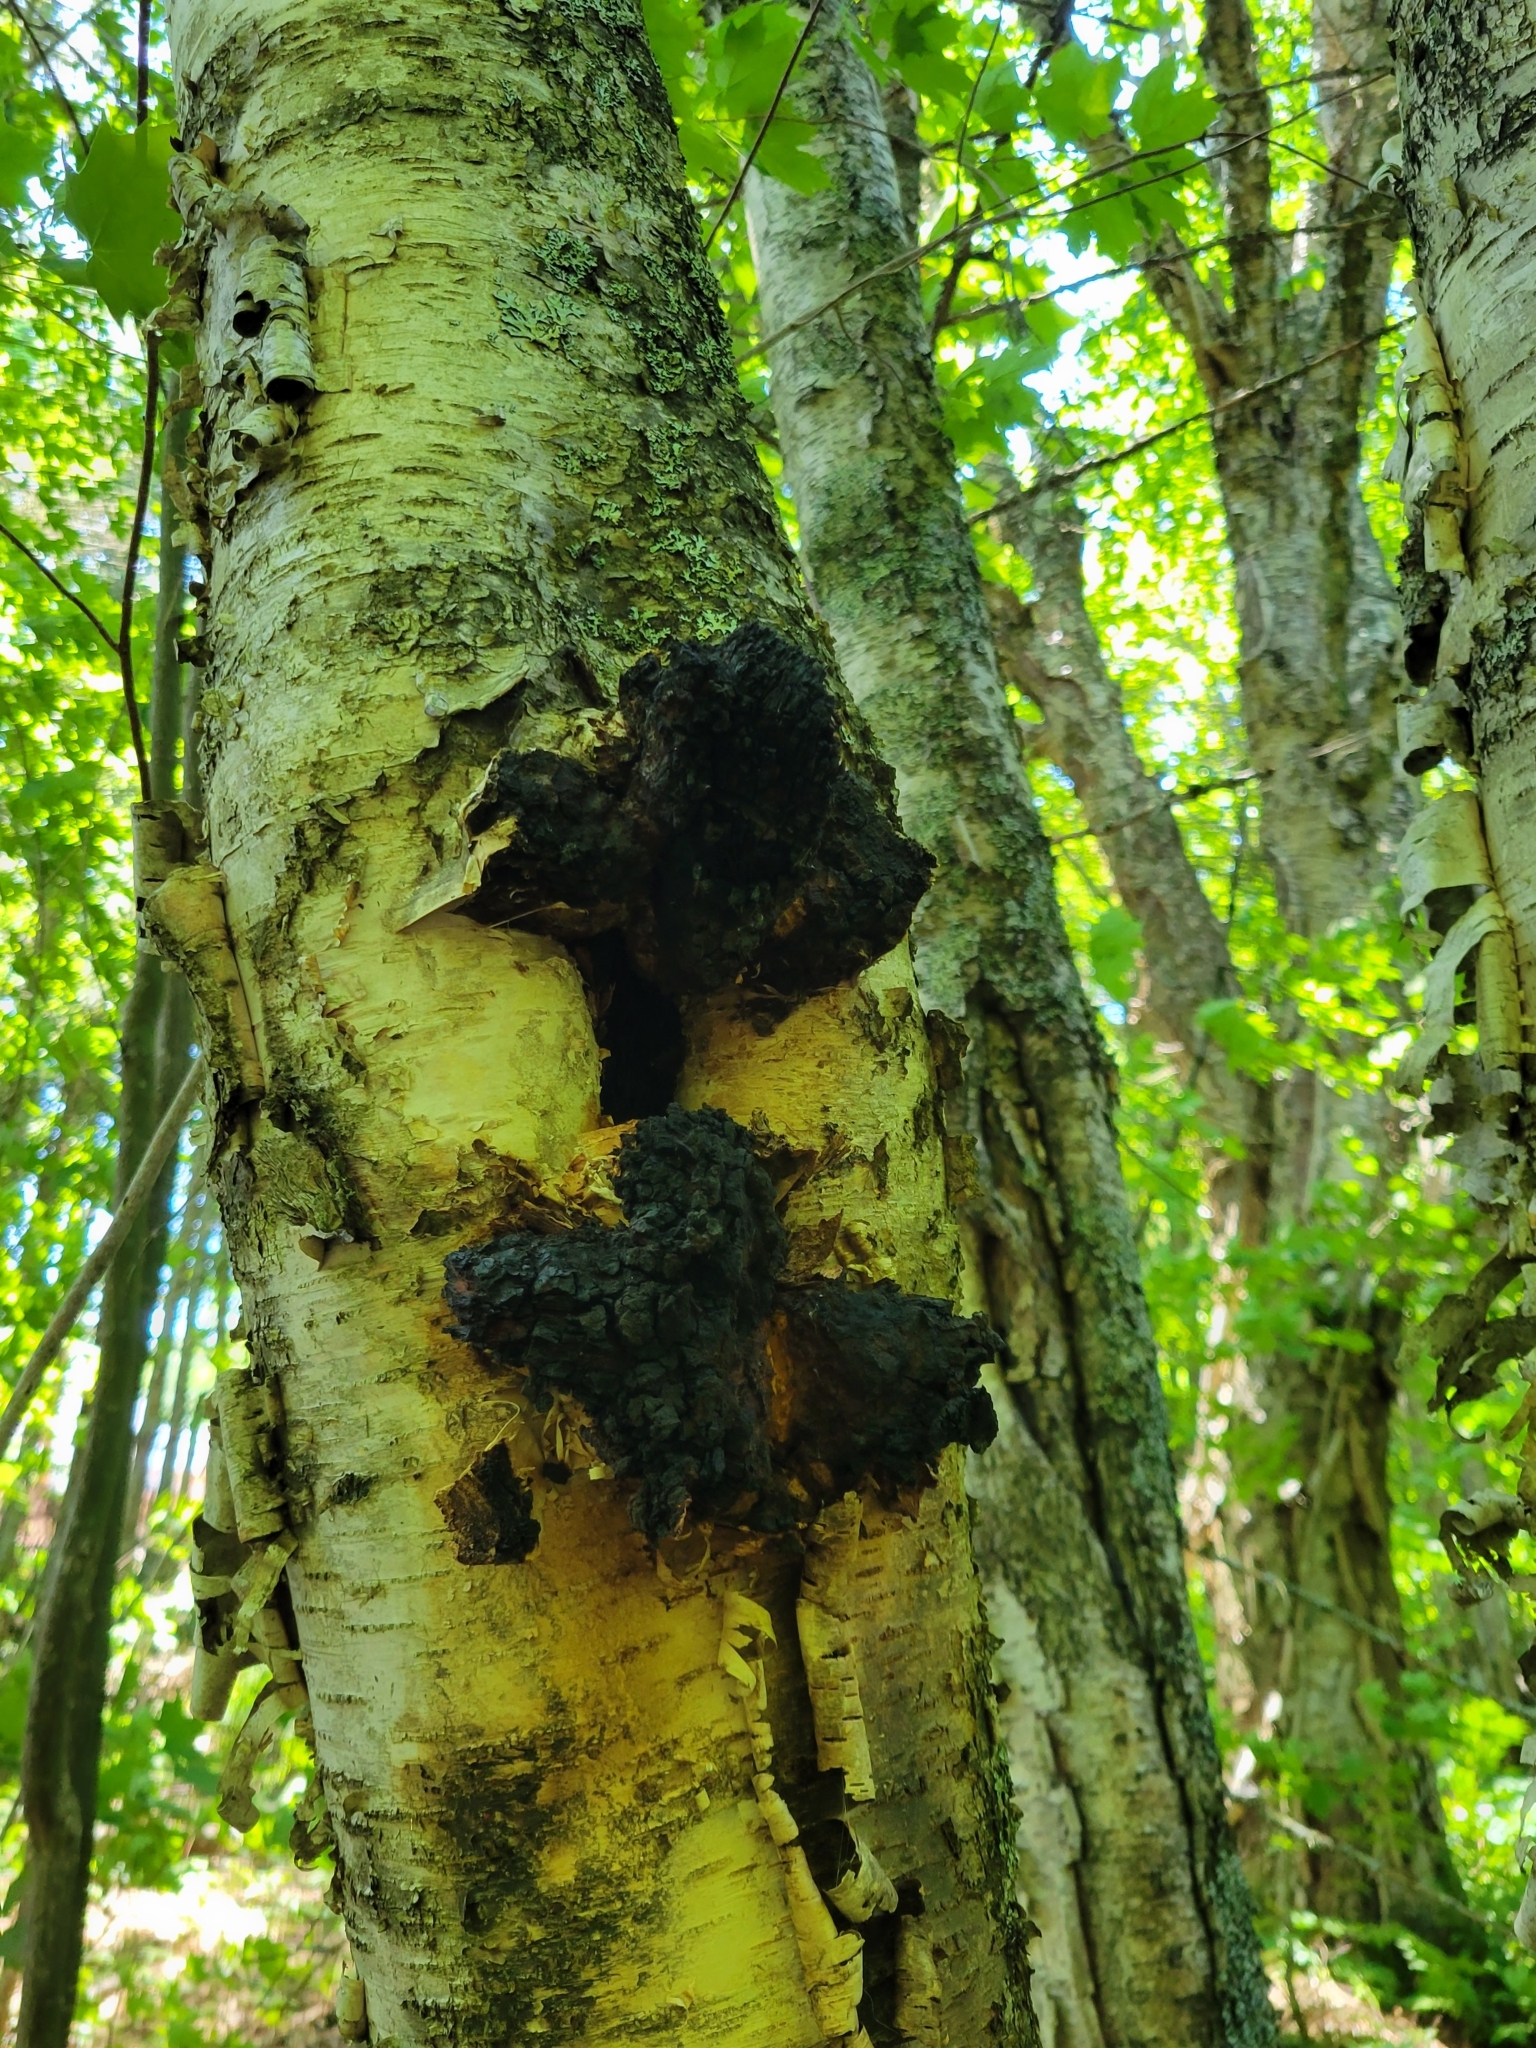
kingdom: Fungi
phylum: Basidiomycota
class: Agaricomycetes
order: Hymenochaetales
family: Hymenochaetaceae
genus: Inonotus
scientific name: Inonotus obliquus
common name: Chaga
